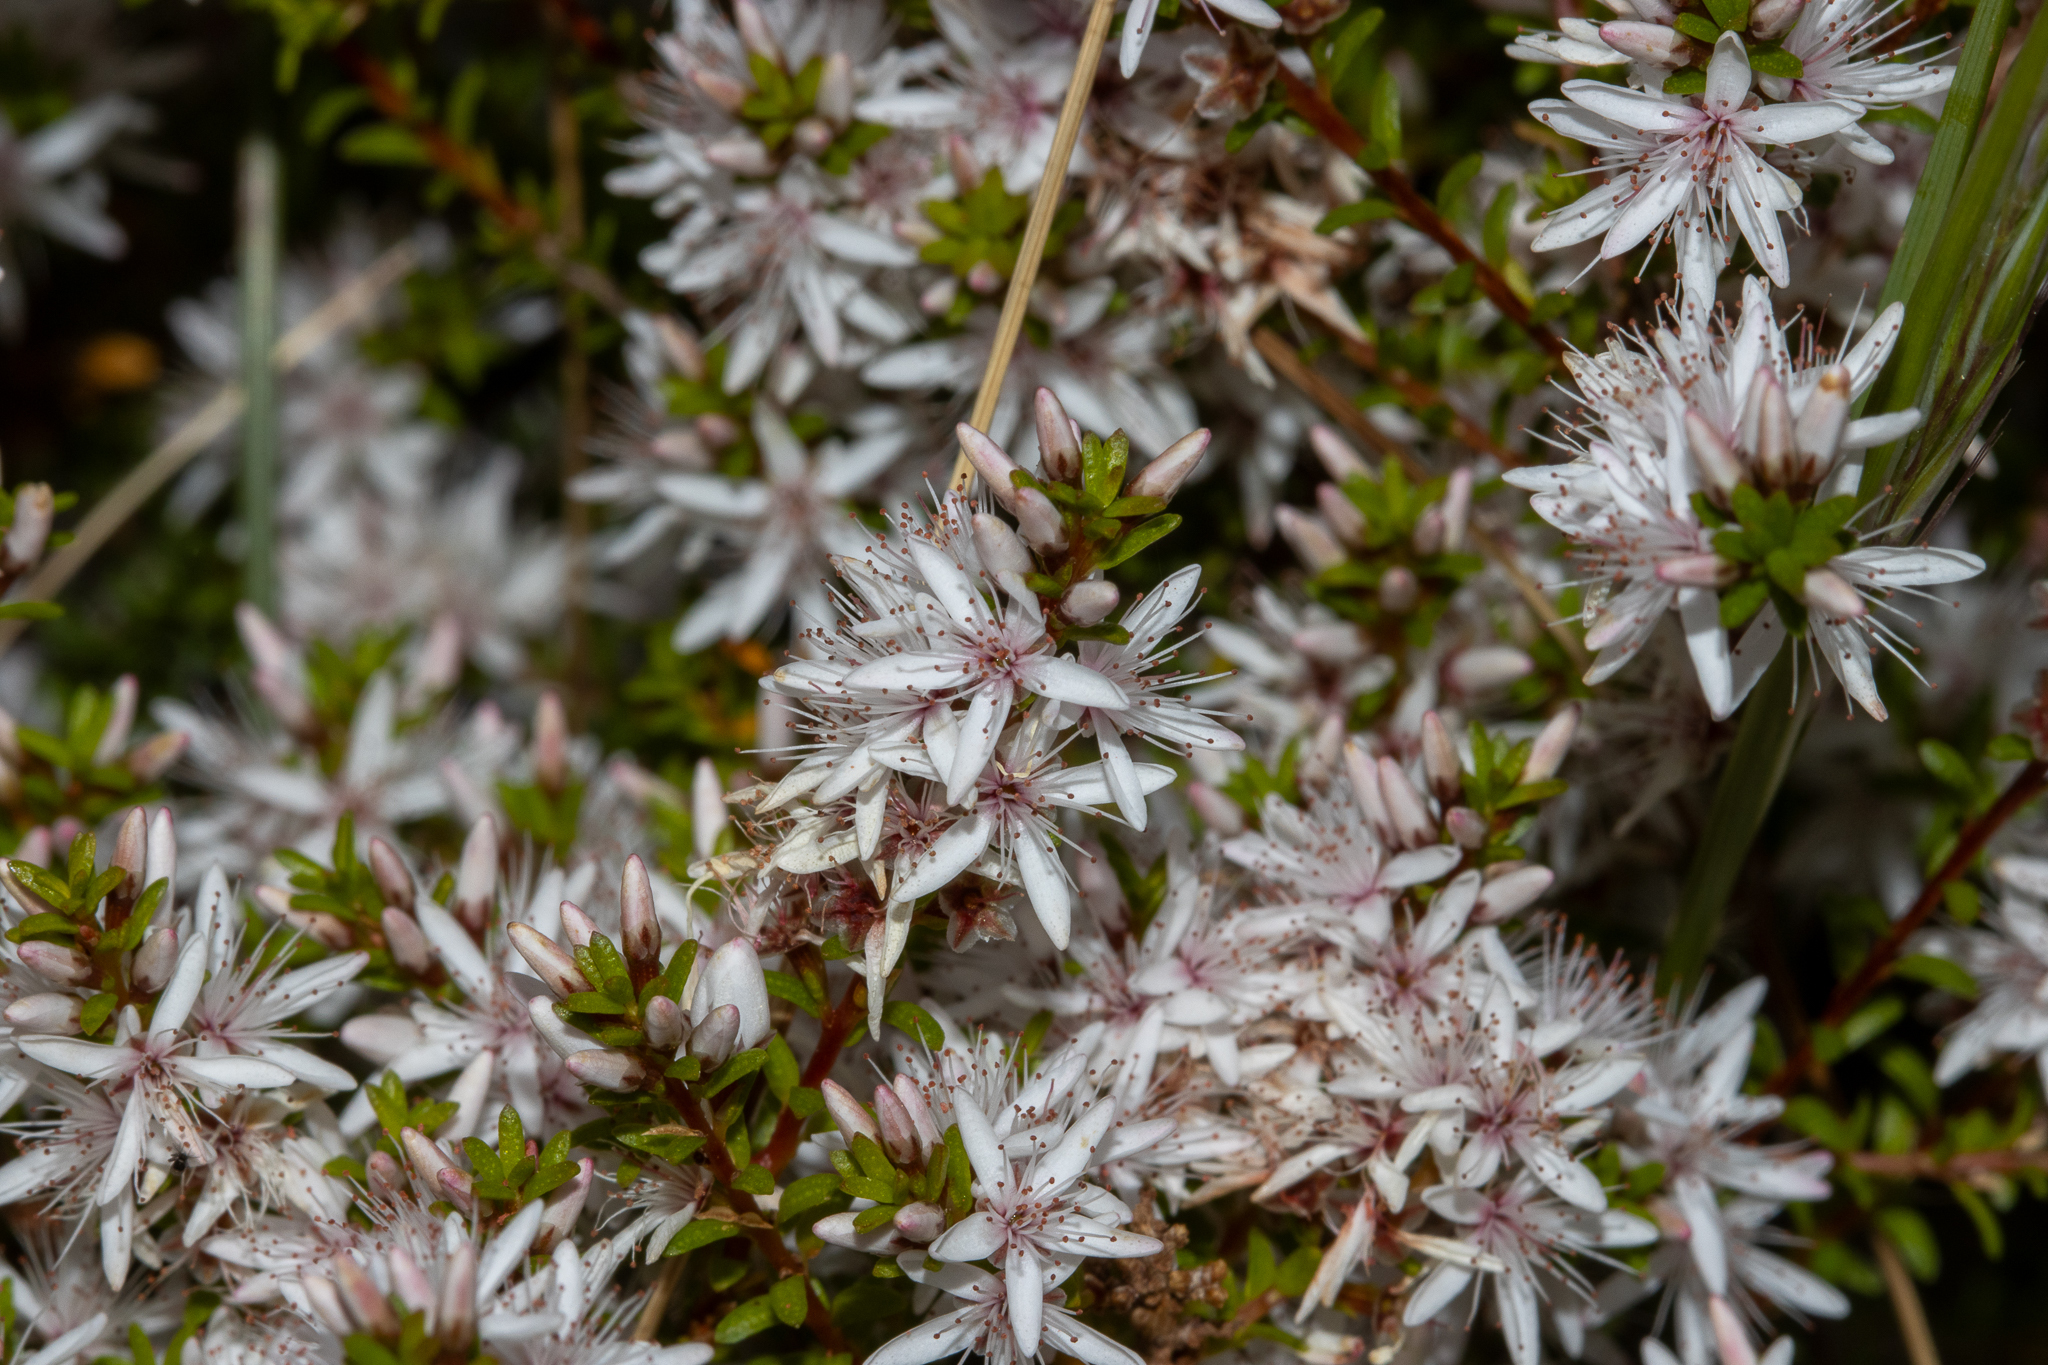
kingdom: Plantae
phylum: Tracheophyta
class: Magnoliopsida
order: Myrtales
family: Myrtaceae
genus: Calytrix
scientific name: Calytrix glaberrima
